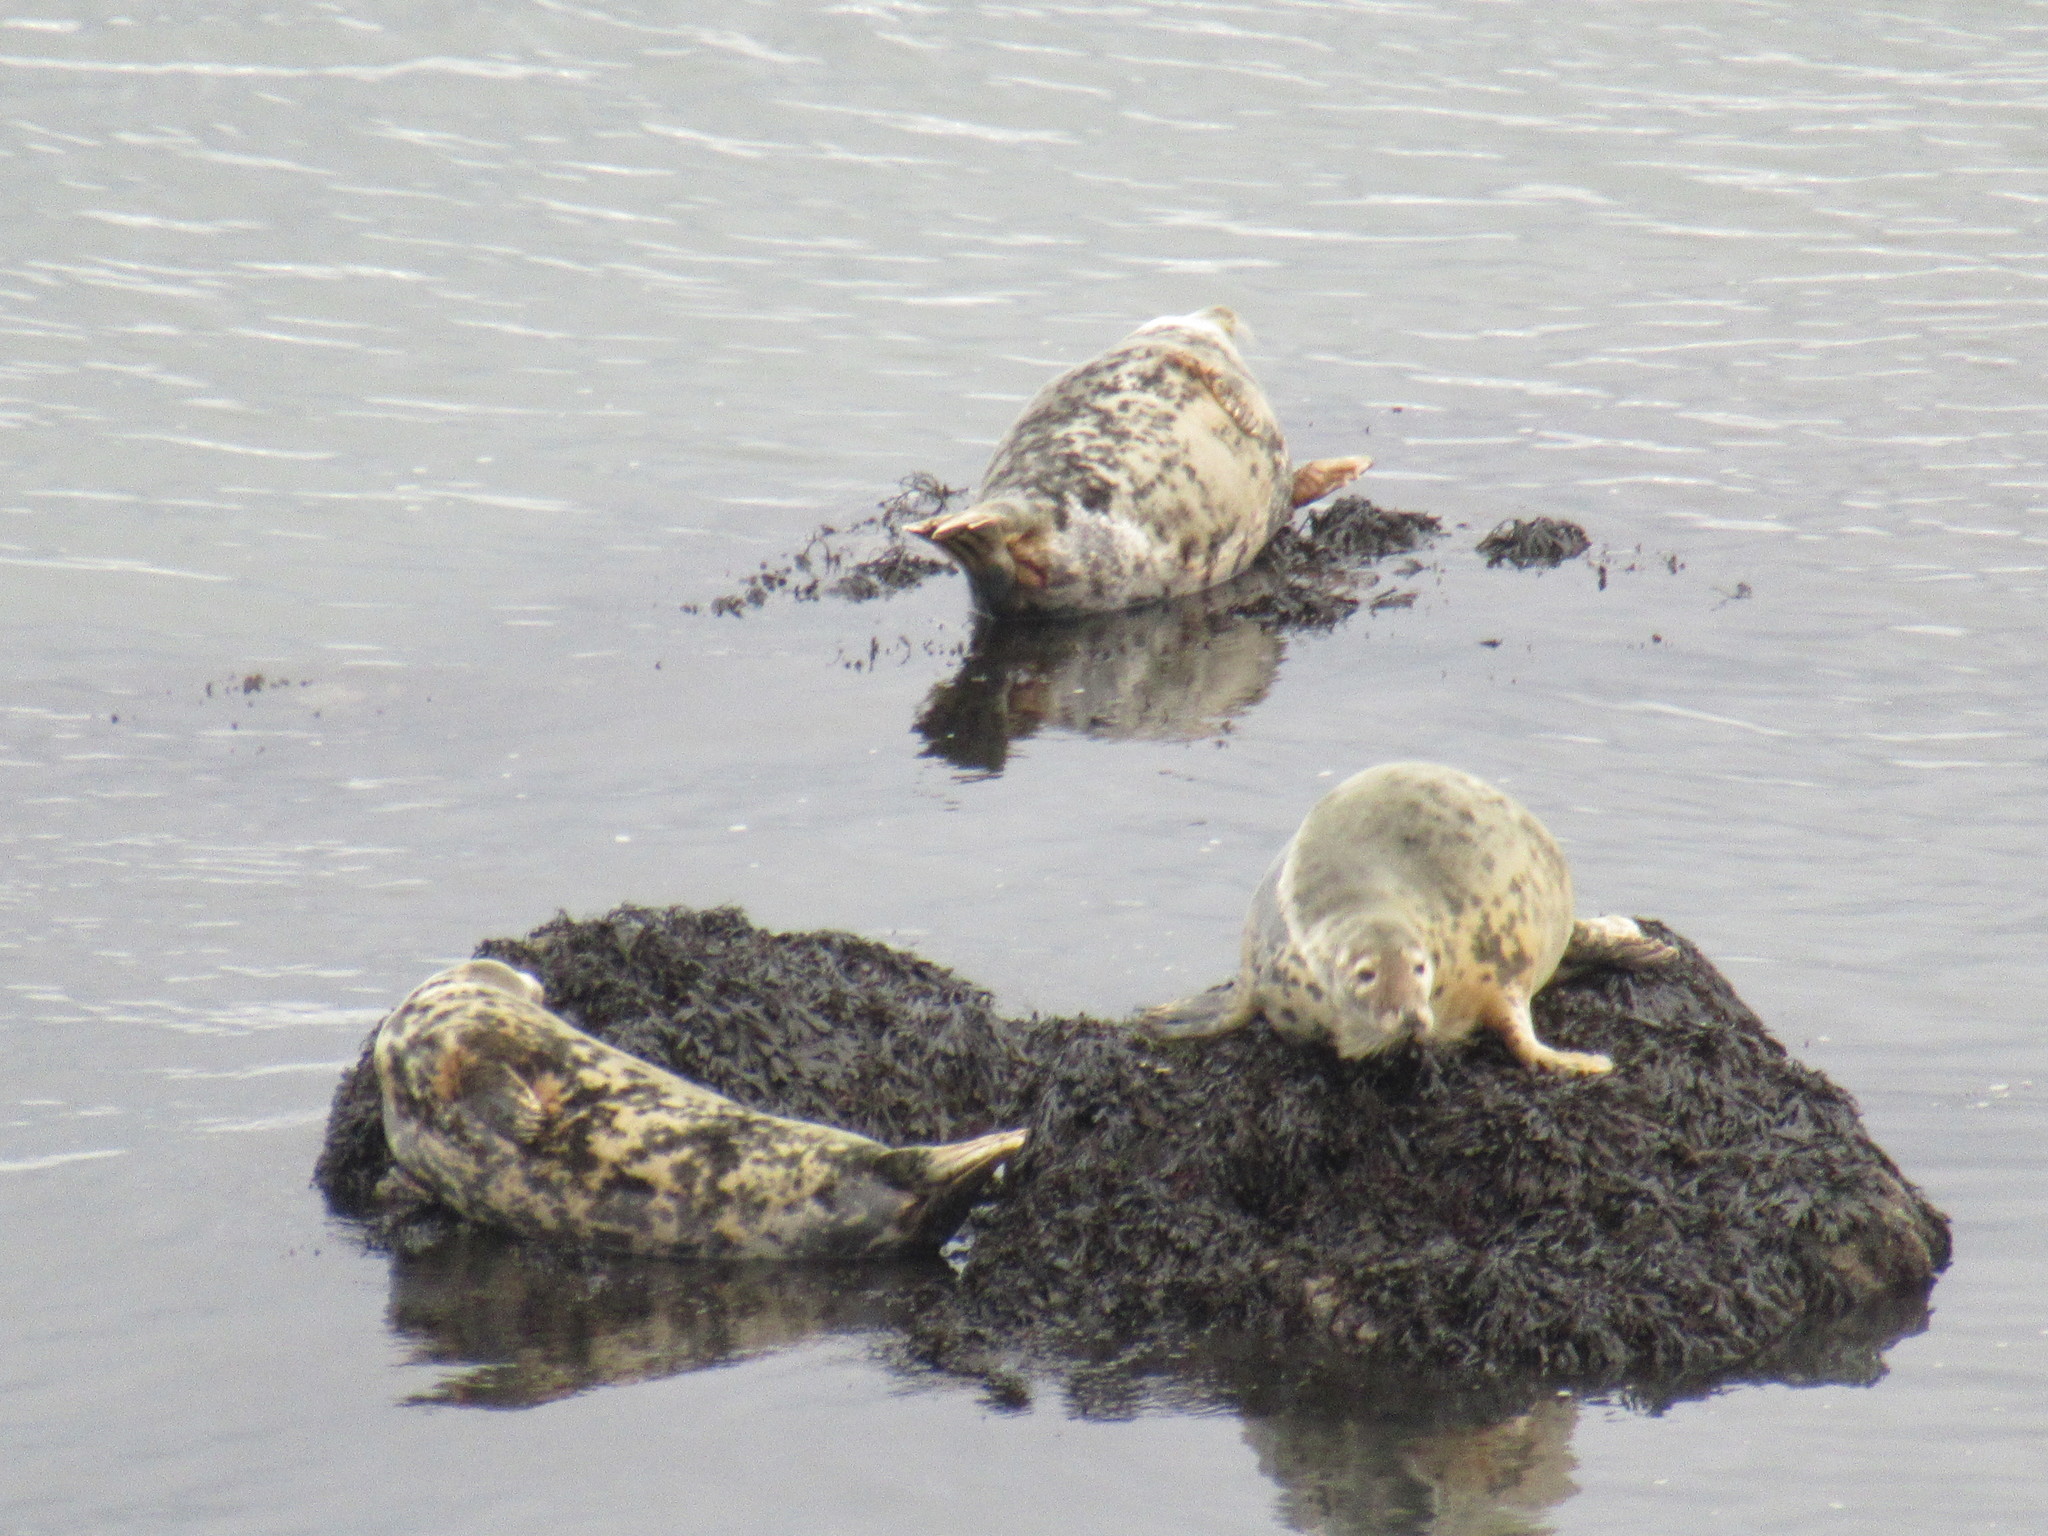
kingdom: Animalia
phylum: Chordata
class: Mammalia
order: Carnivora
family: Phocidae
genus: Halichoerus
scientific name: Halichoerus grypus
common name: Grey seal
